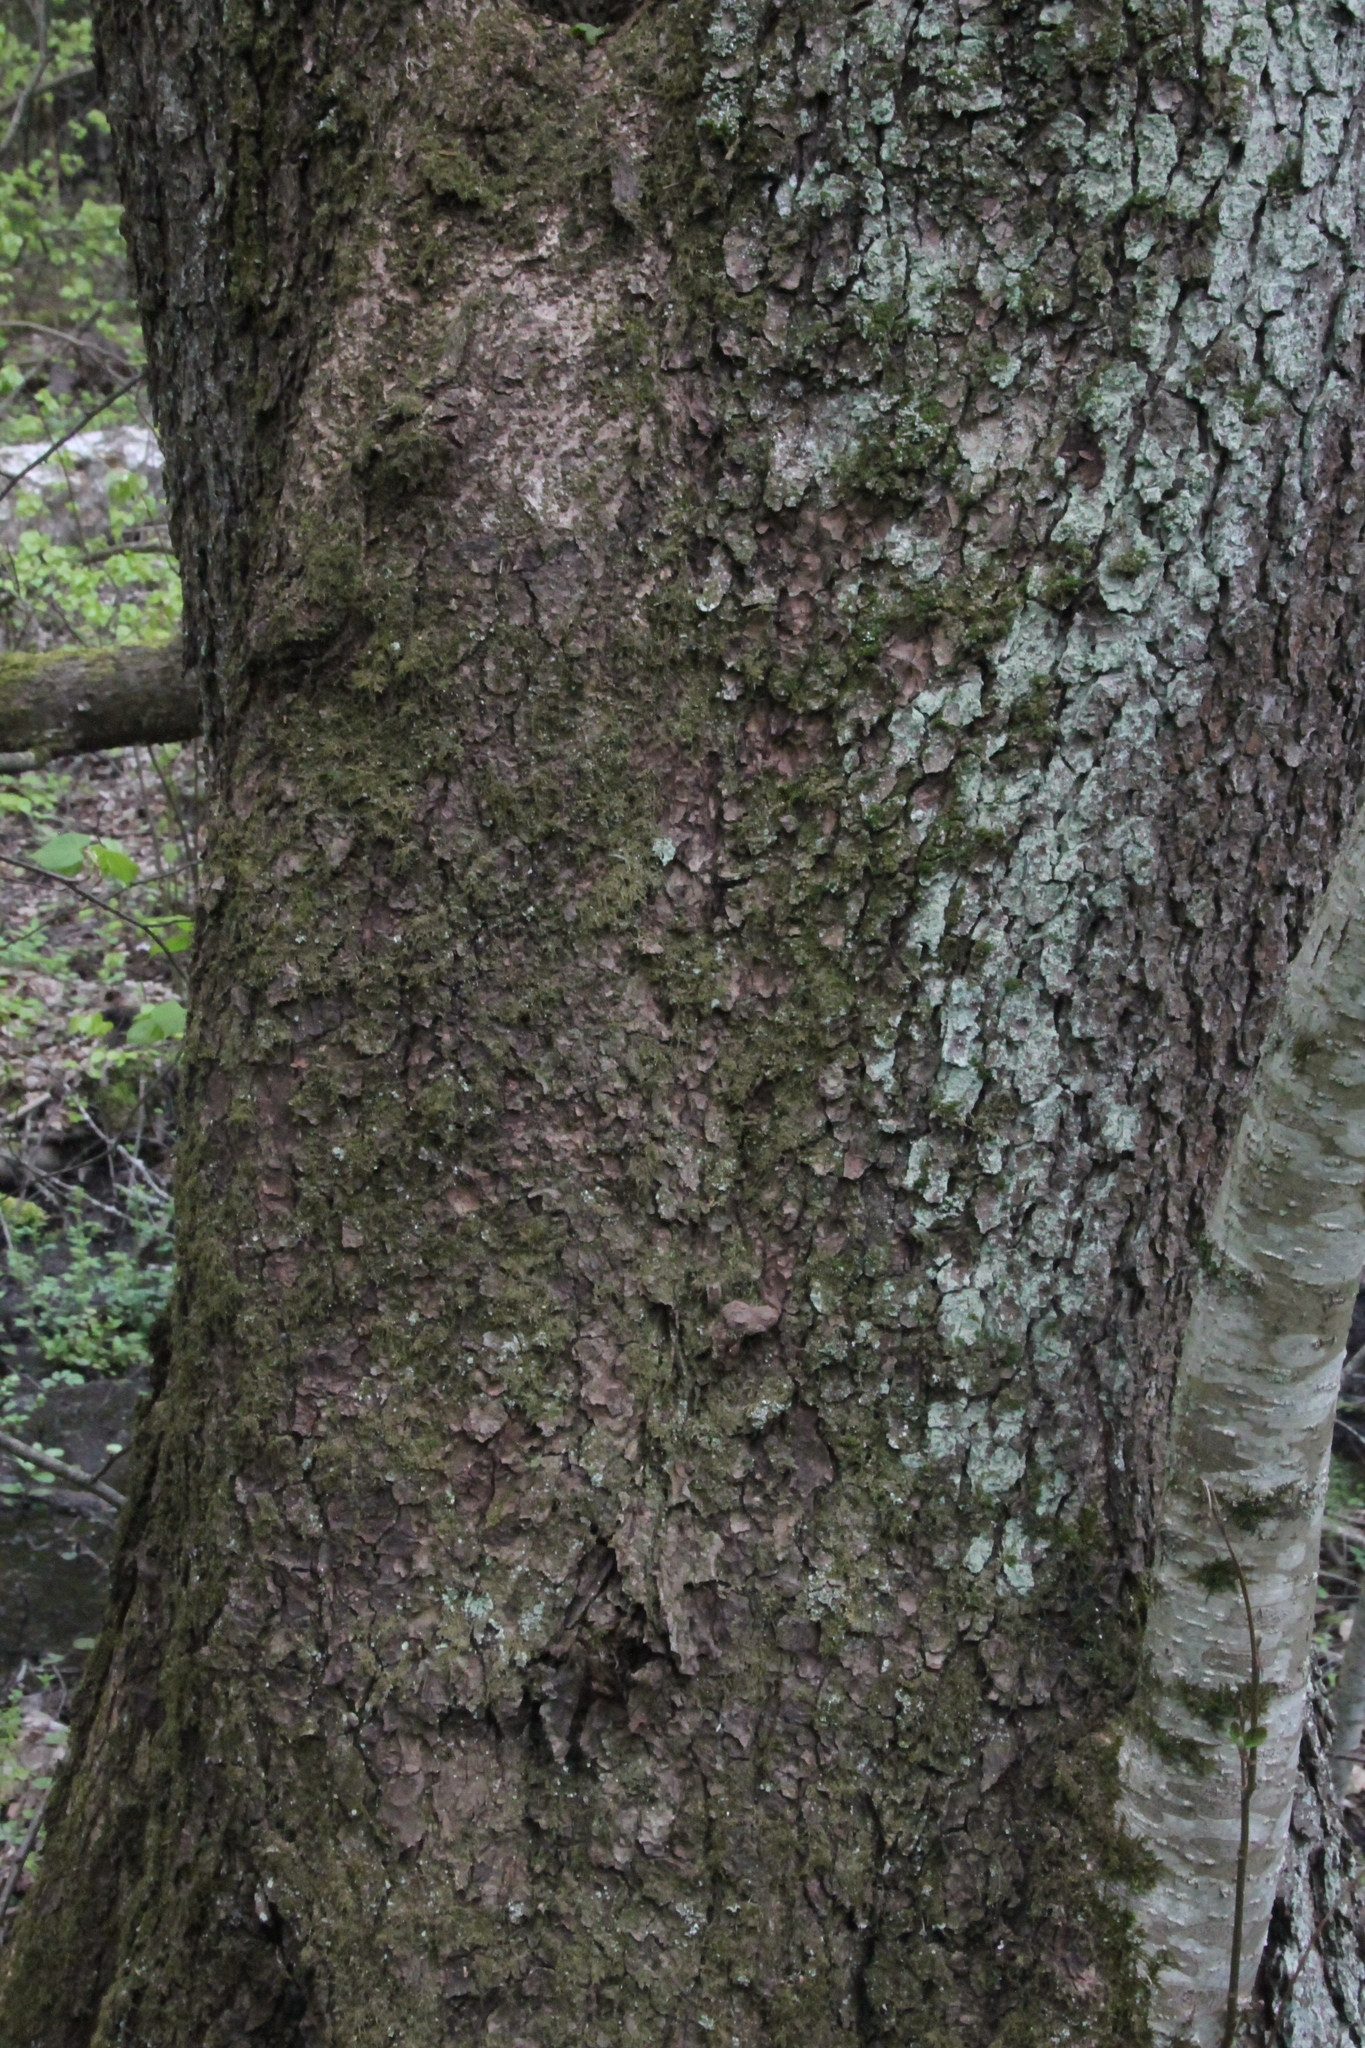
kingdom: Plantae
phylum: Tracheophyta
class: Magnoliopsida
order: Fagales
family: Betulaceae
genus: Alnus
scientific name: Alnus glutinosa
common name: Black alder
